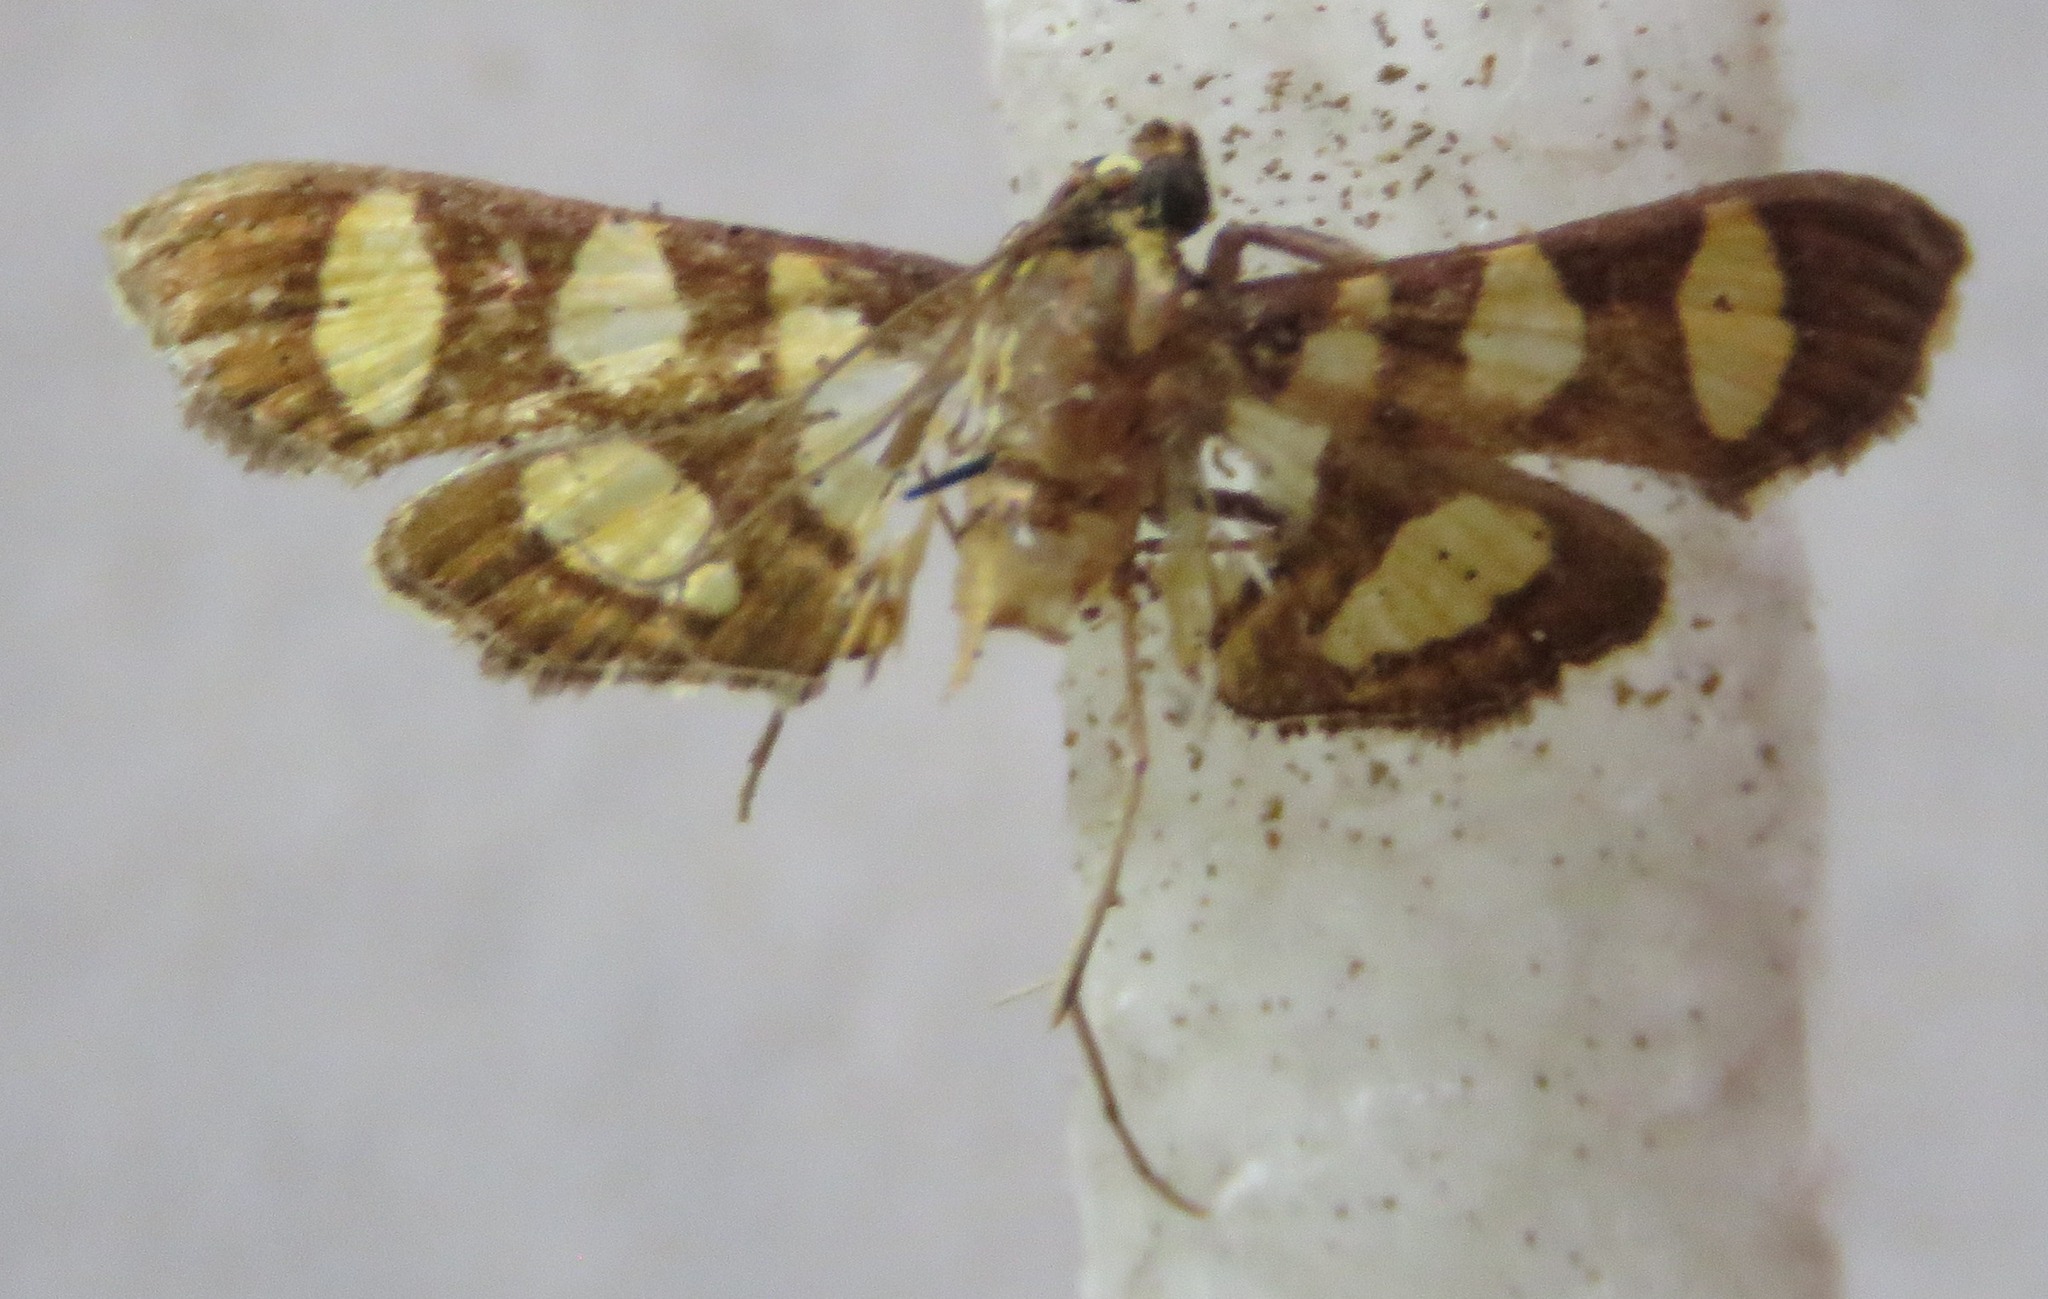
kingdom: Animalia
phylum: Arthropoda
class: Insecta
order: Lepidoptera
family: Crambidae
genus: Syngamia
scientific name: Syngamia florella
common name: Orange-spotted flower moth
